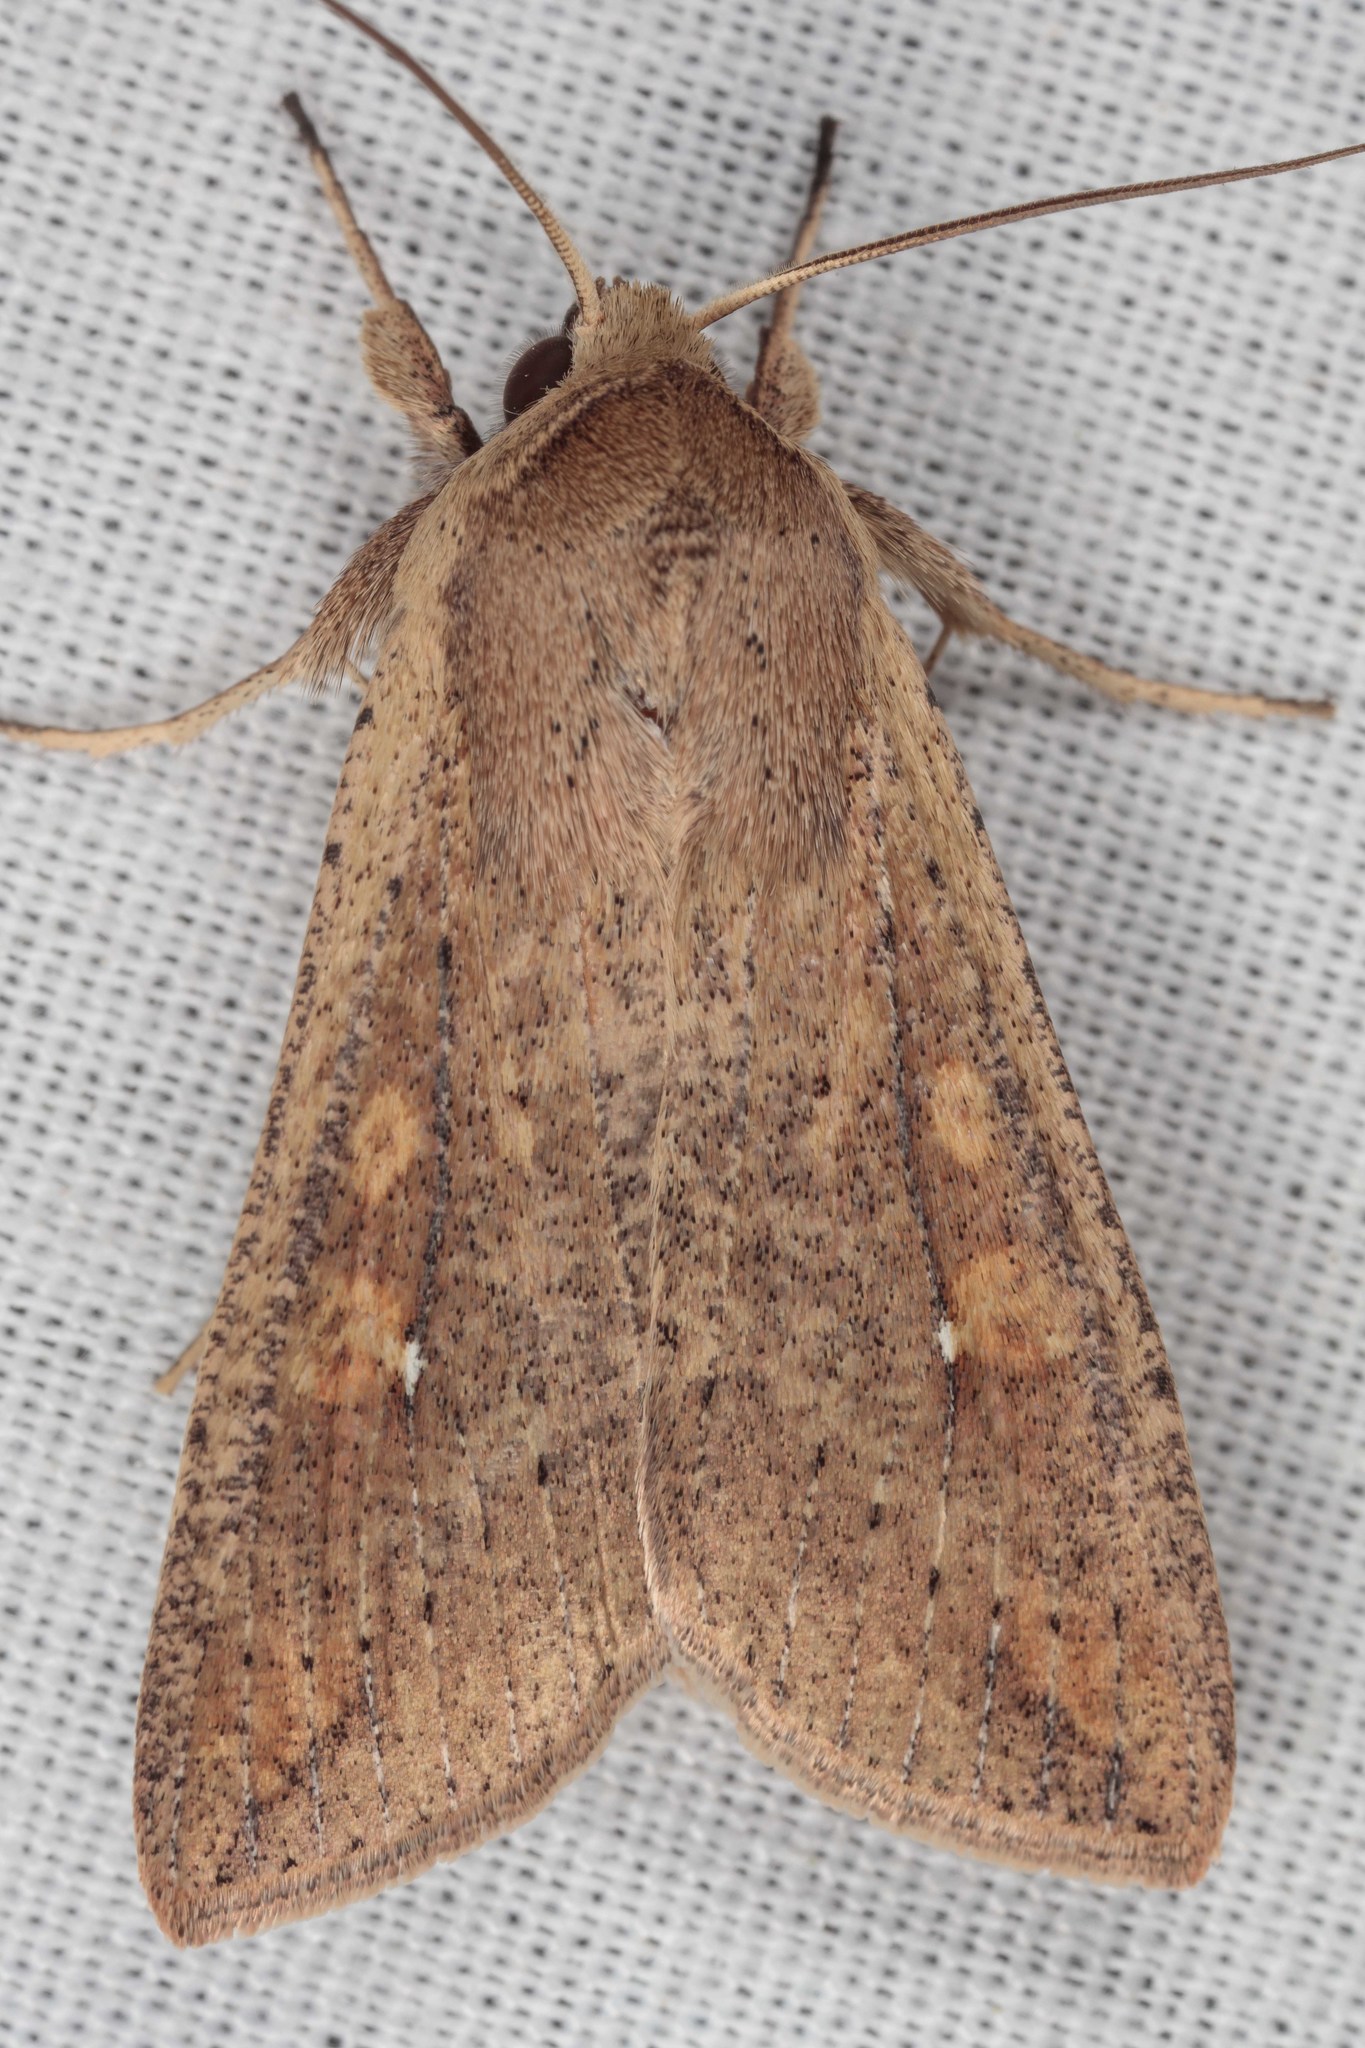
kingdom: Animalia
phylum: Arthropoda
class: Insecta
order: Lepidoptera
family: Noctuidae
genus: Mythimna
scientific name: Mythimna unipuncta
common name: White-speck
